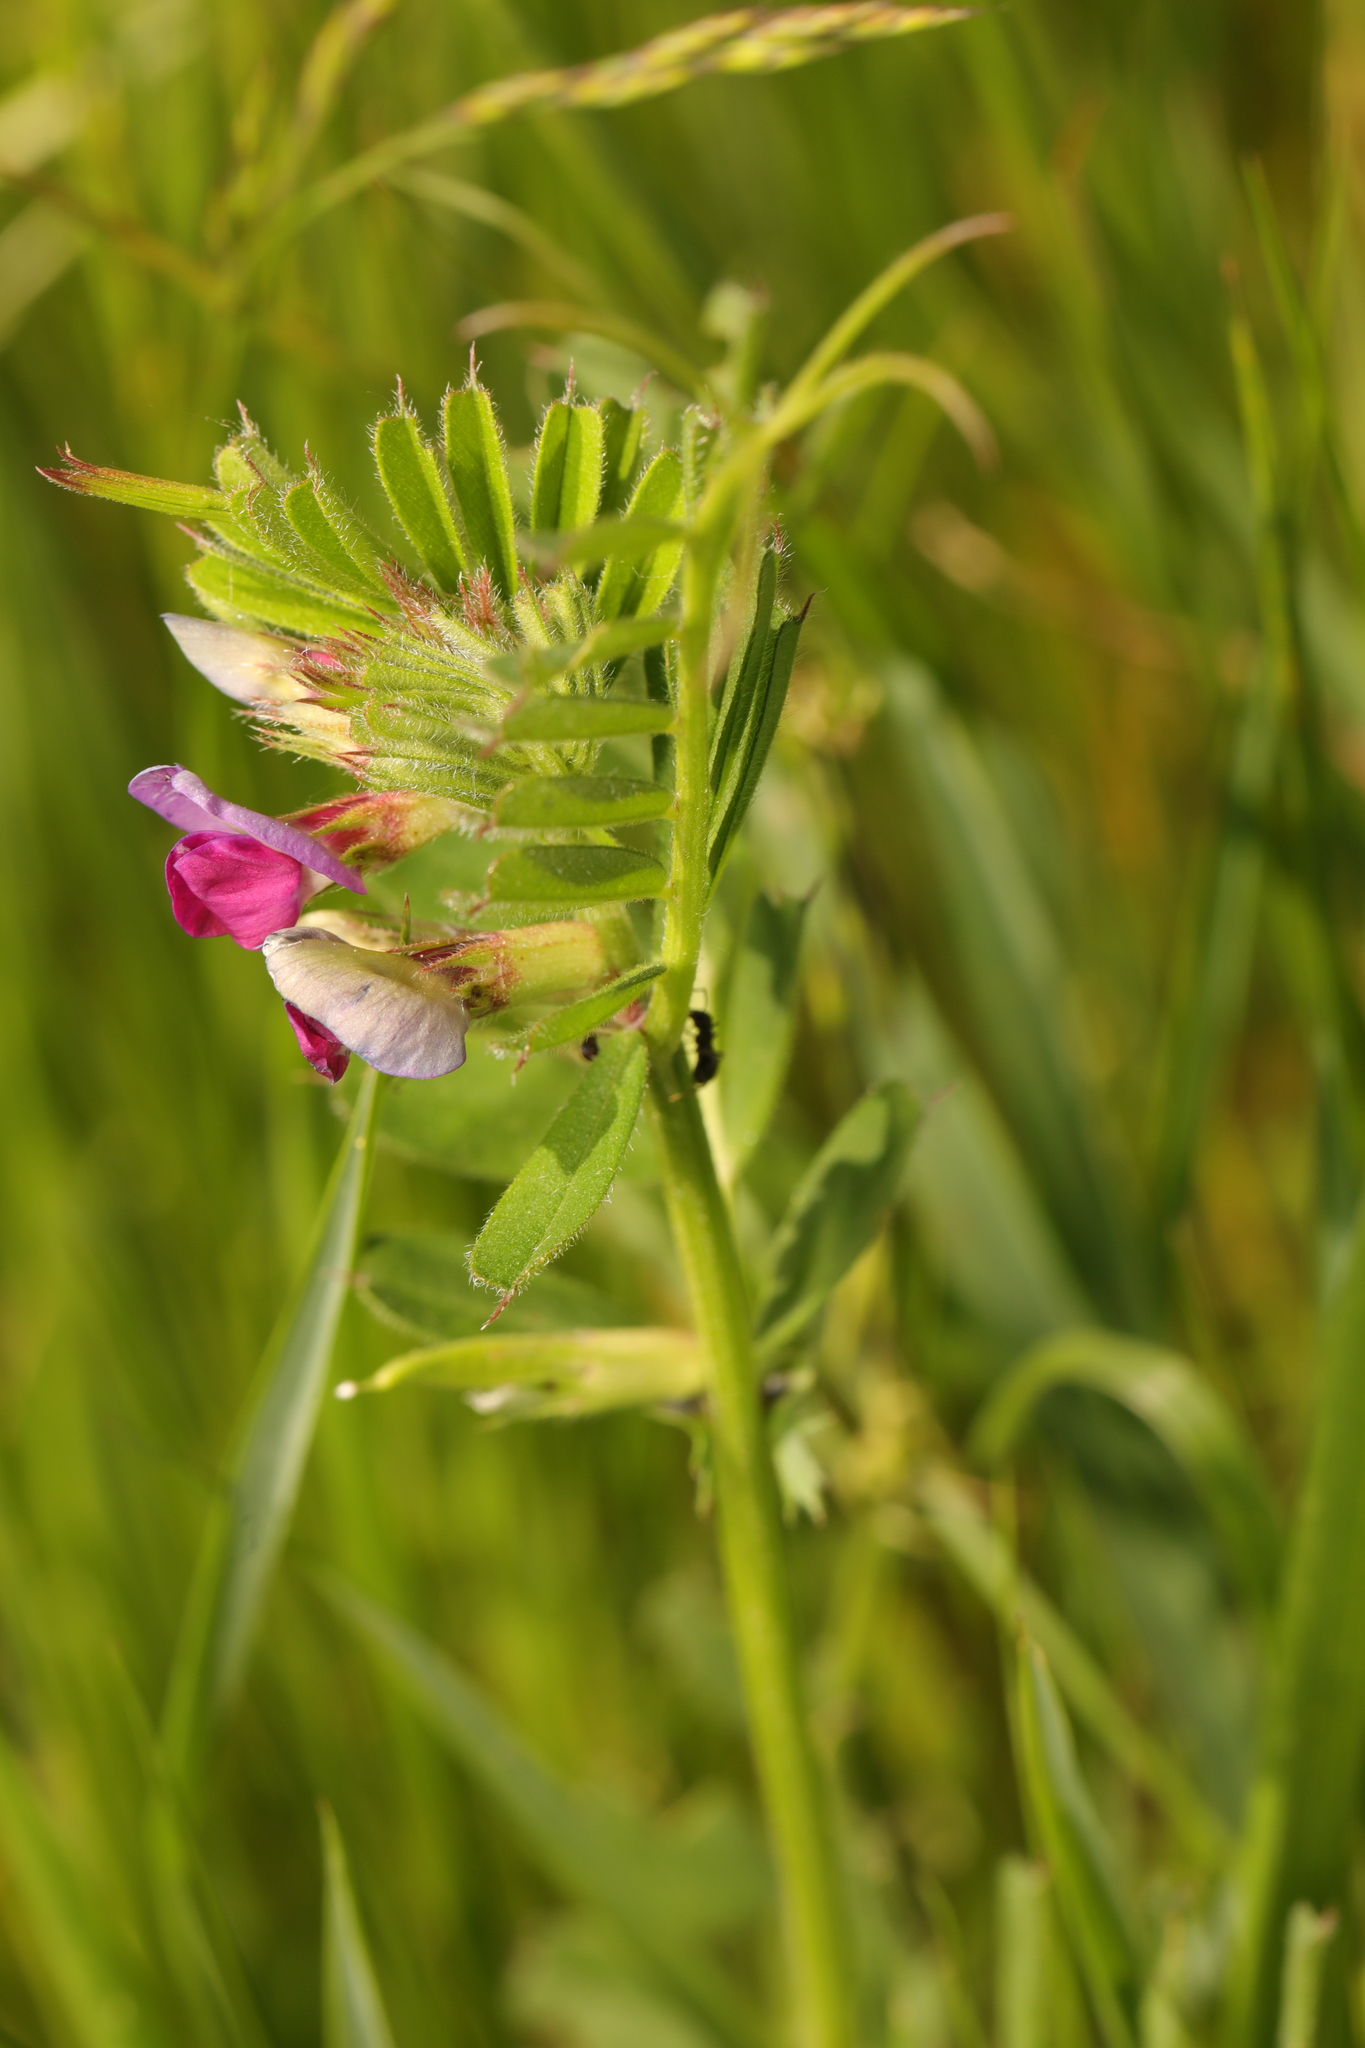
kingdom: Plantae
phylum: Tracheophyta
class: Magnoliopsida
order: Fabales
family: Fabaceae
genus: Vicia
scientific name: Vicia sativa
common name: Garden vetch
